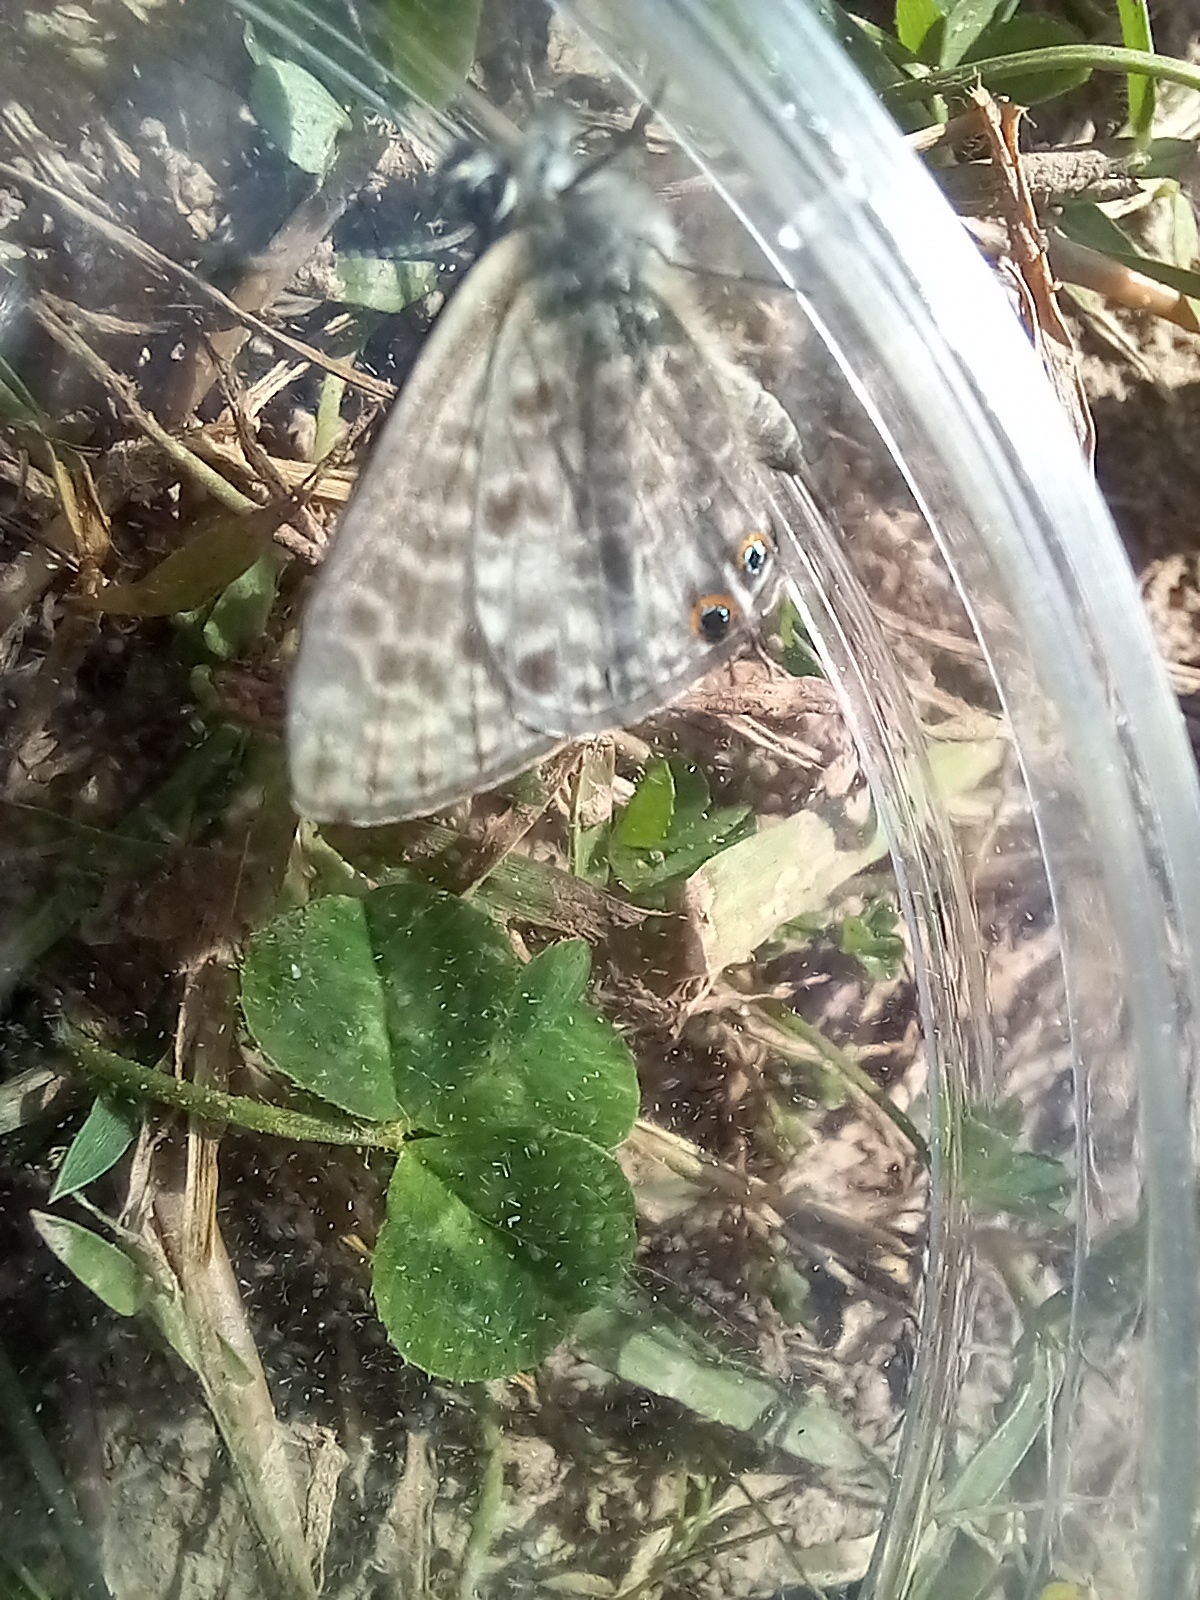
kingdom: Animalia
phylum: Arthropoda
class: Insecta
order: Lepidoptera
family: Lycaenidae
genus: Leptotes
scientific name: Leptotes pirithous
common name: Lang's short-tailed blue
